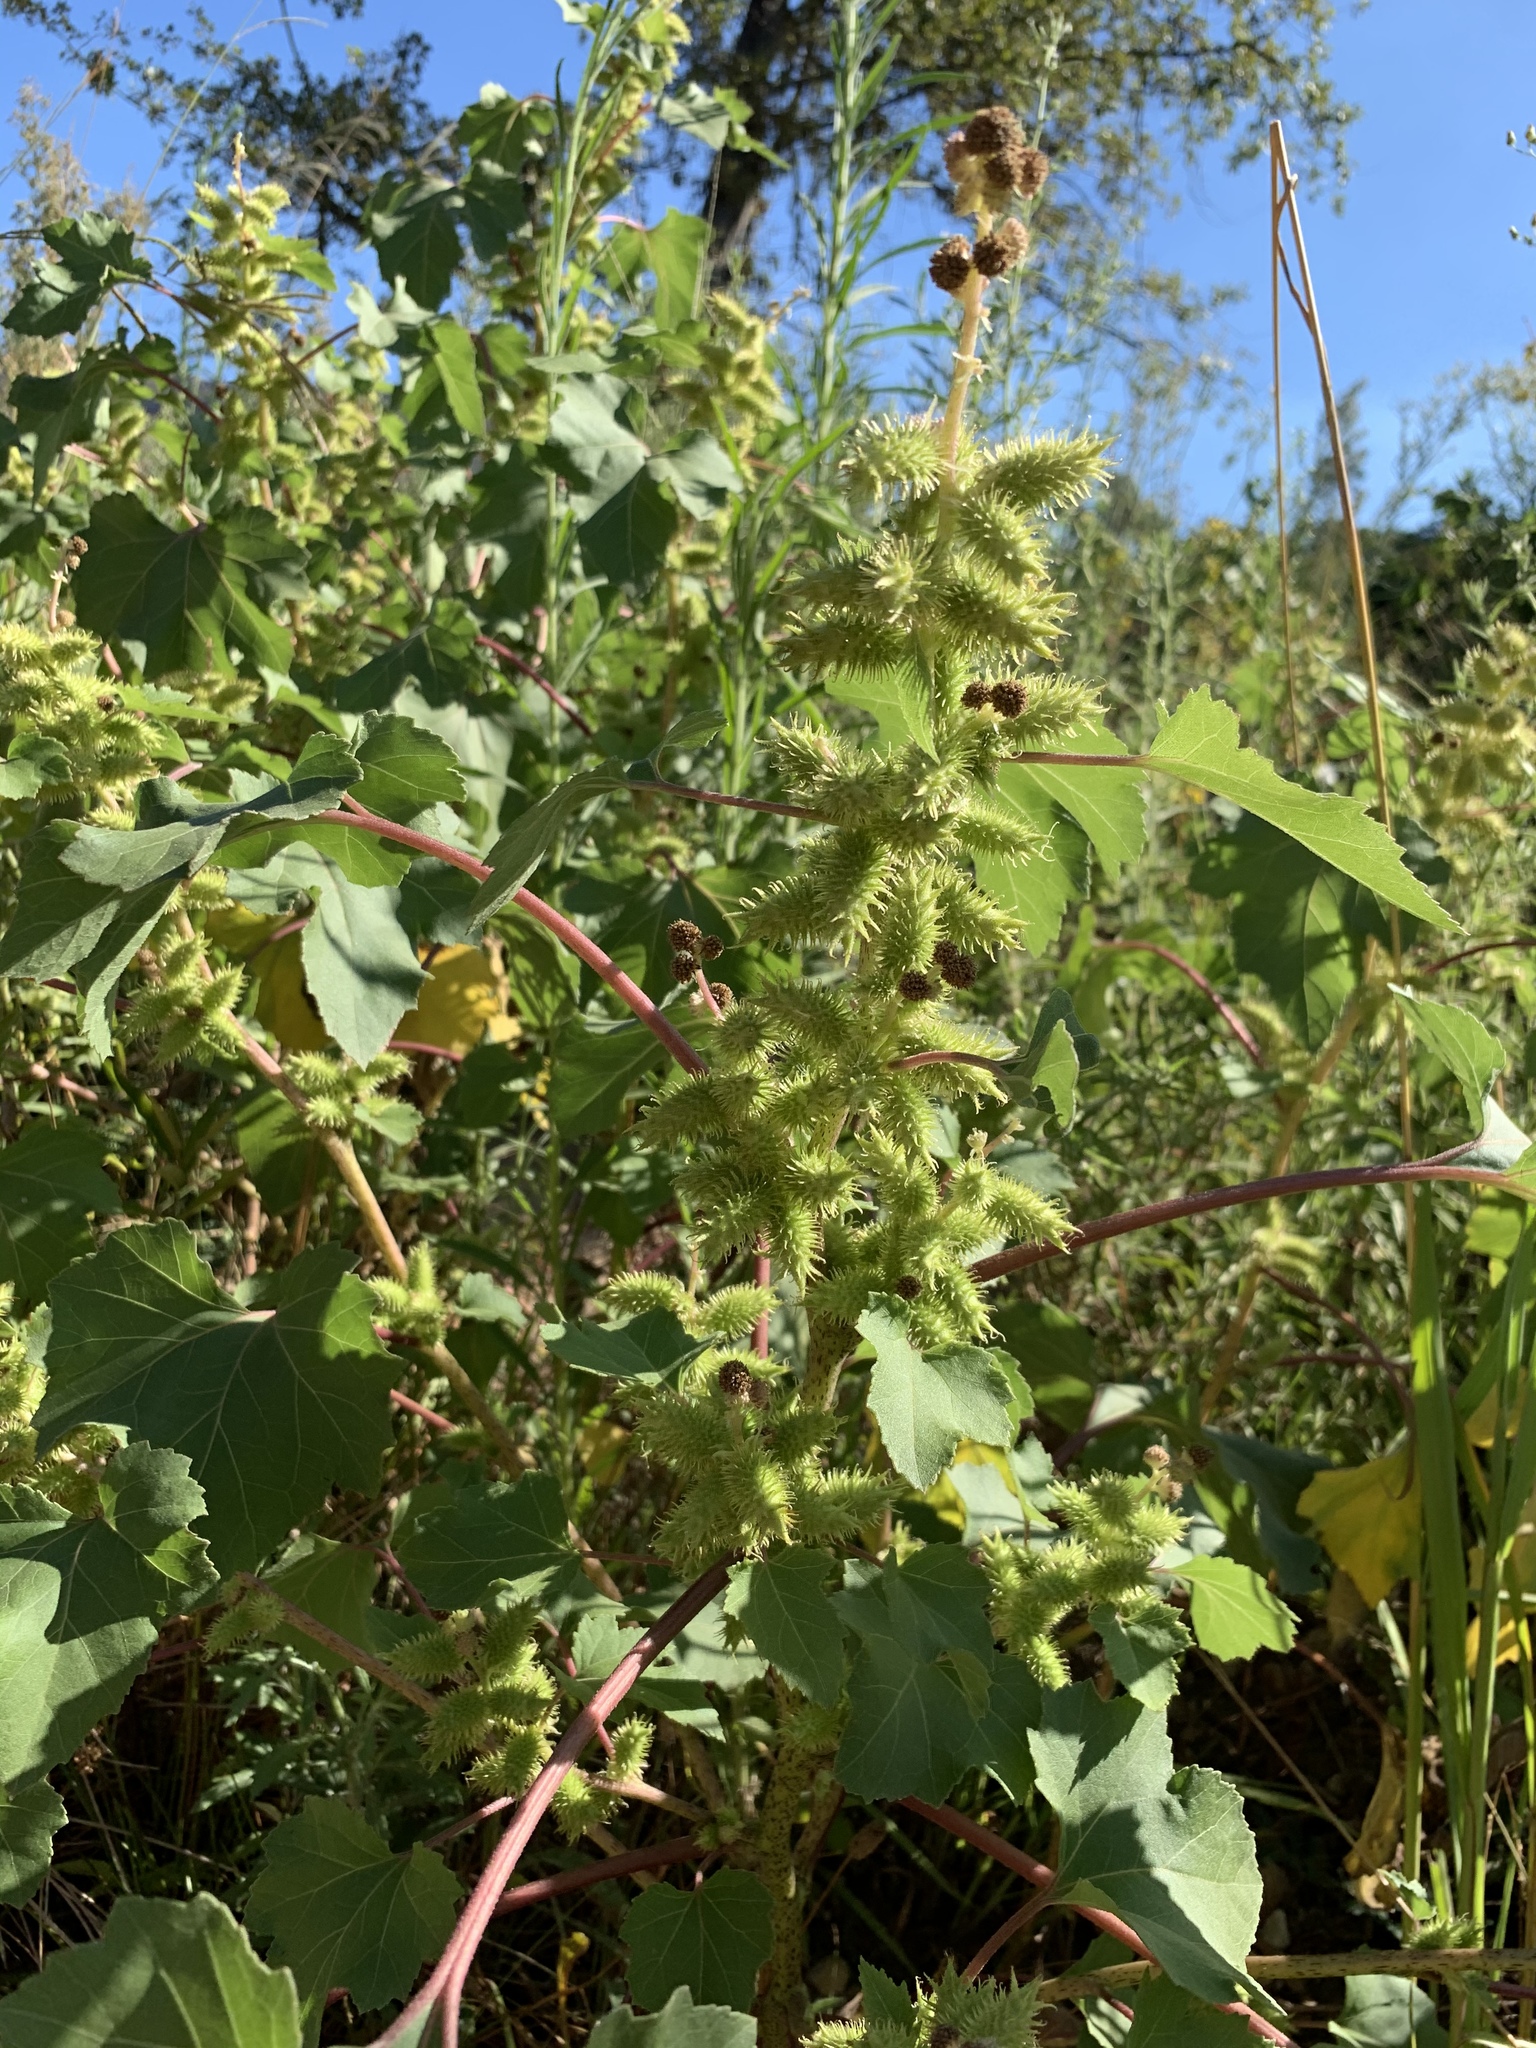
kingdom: Plantae
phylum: Tracheophyta
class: Magnoliopsida
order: Asterales
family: Asteraceae
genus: Xanthium
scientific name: Xanthium strumarium
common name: Rough cocklebur
